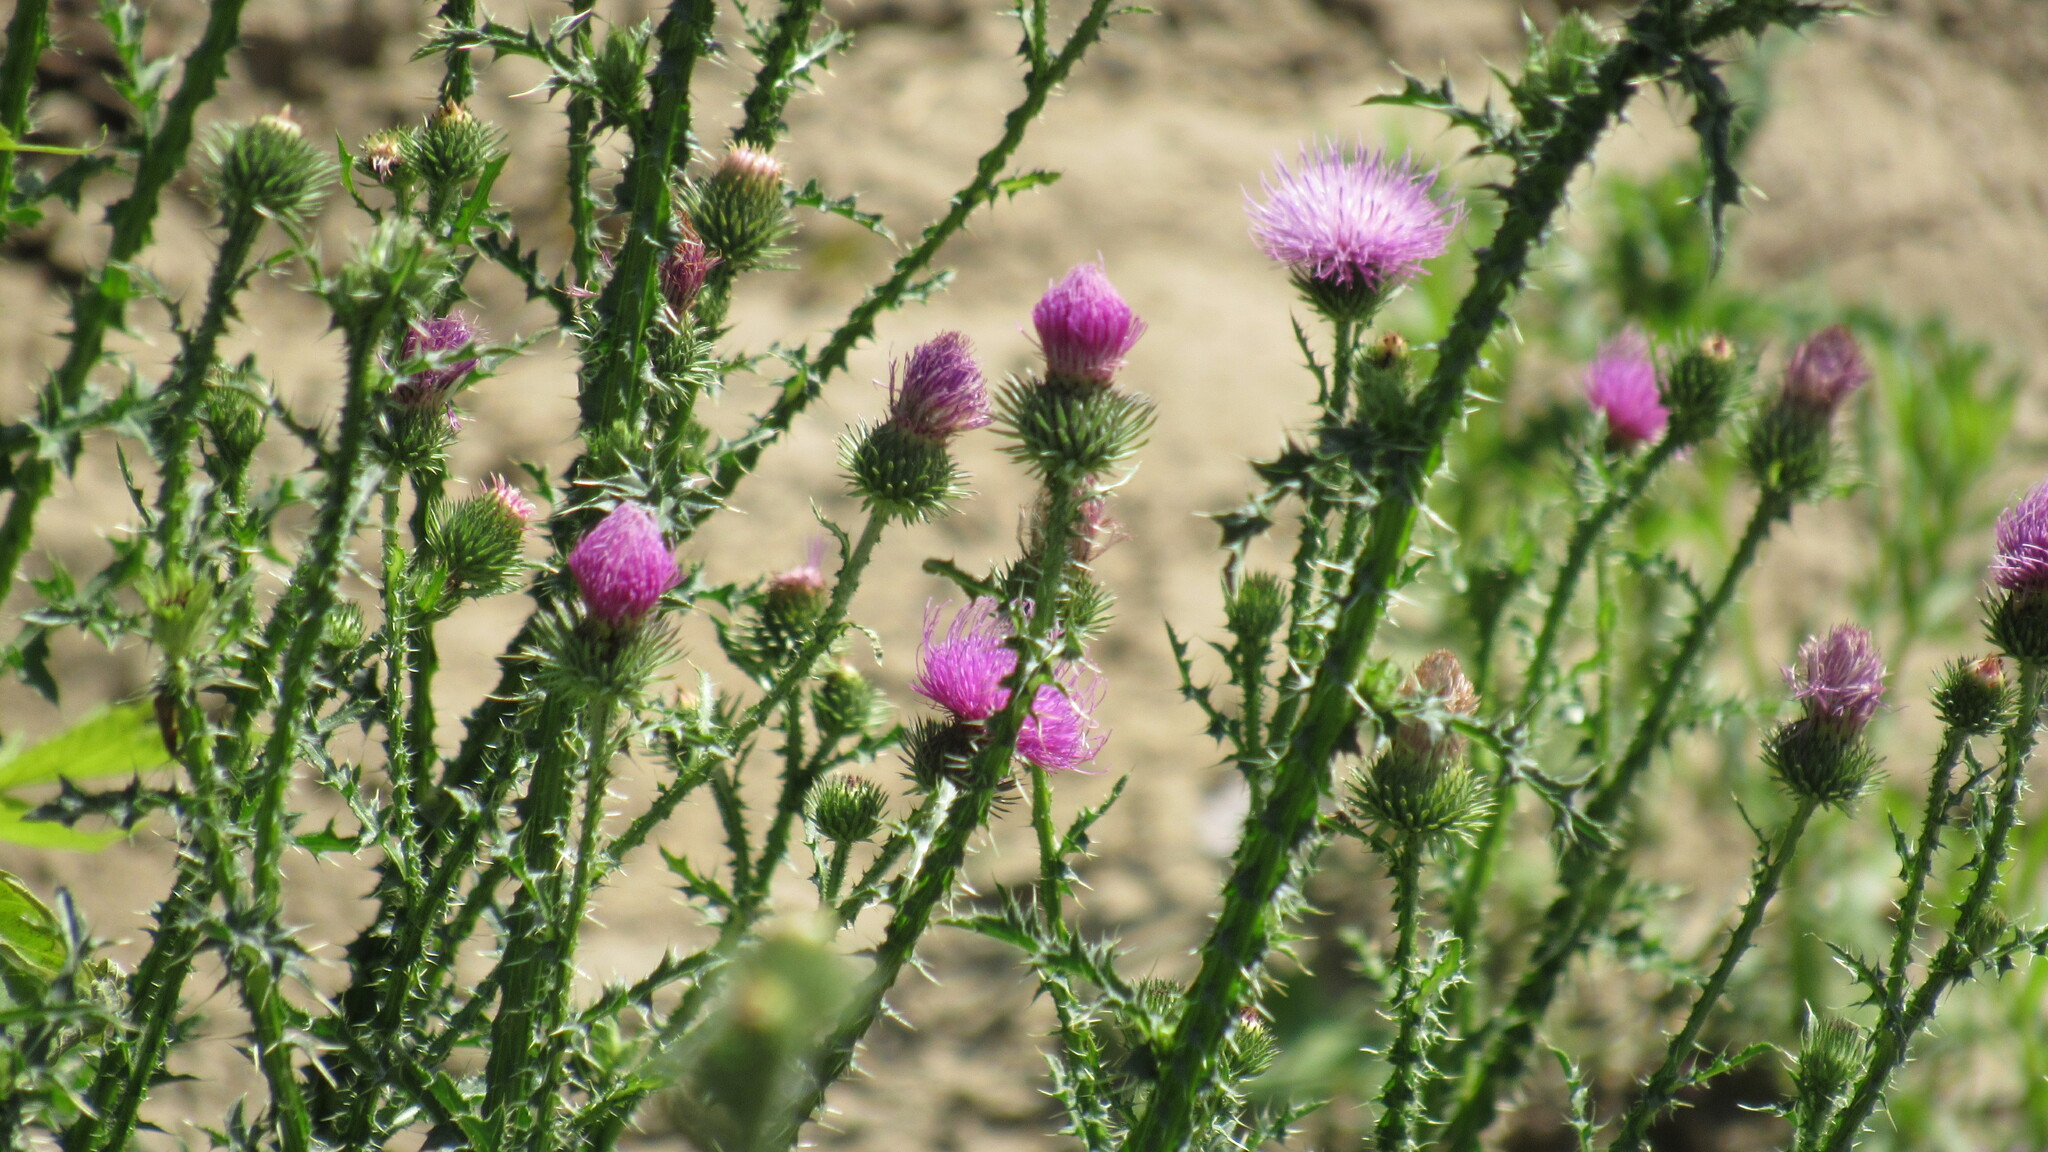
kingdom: Plantae
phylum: Tracheophyta
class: Magnoliopsida
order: Asterales
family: Asteraceae
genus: Carduus
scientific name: Carduus acanthoides
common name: Plumeless thistle
